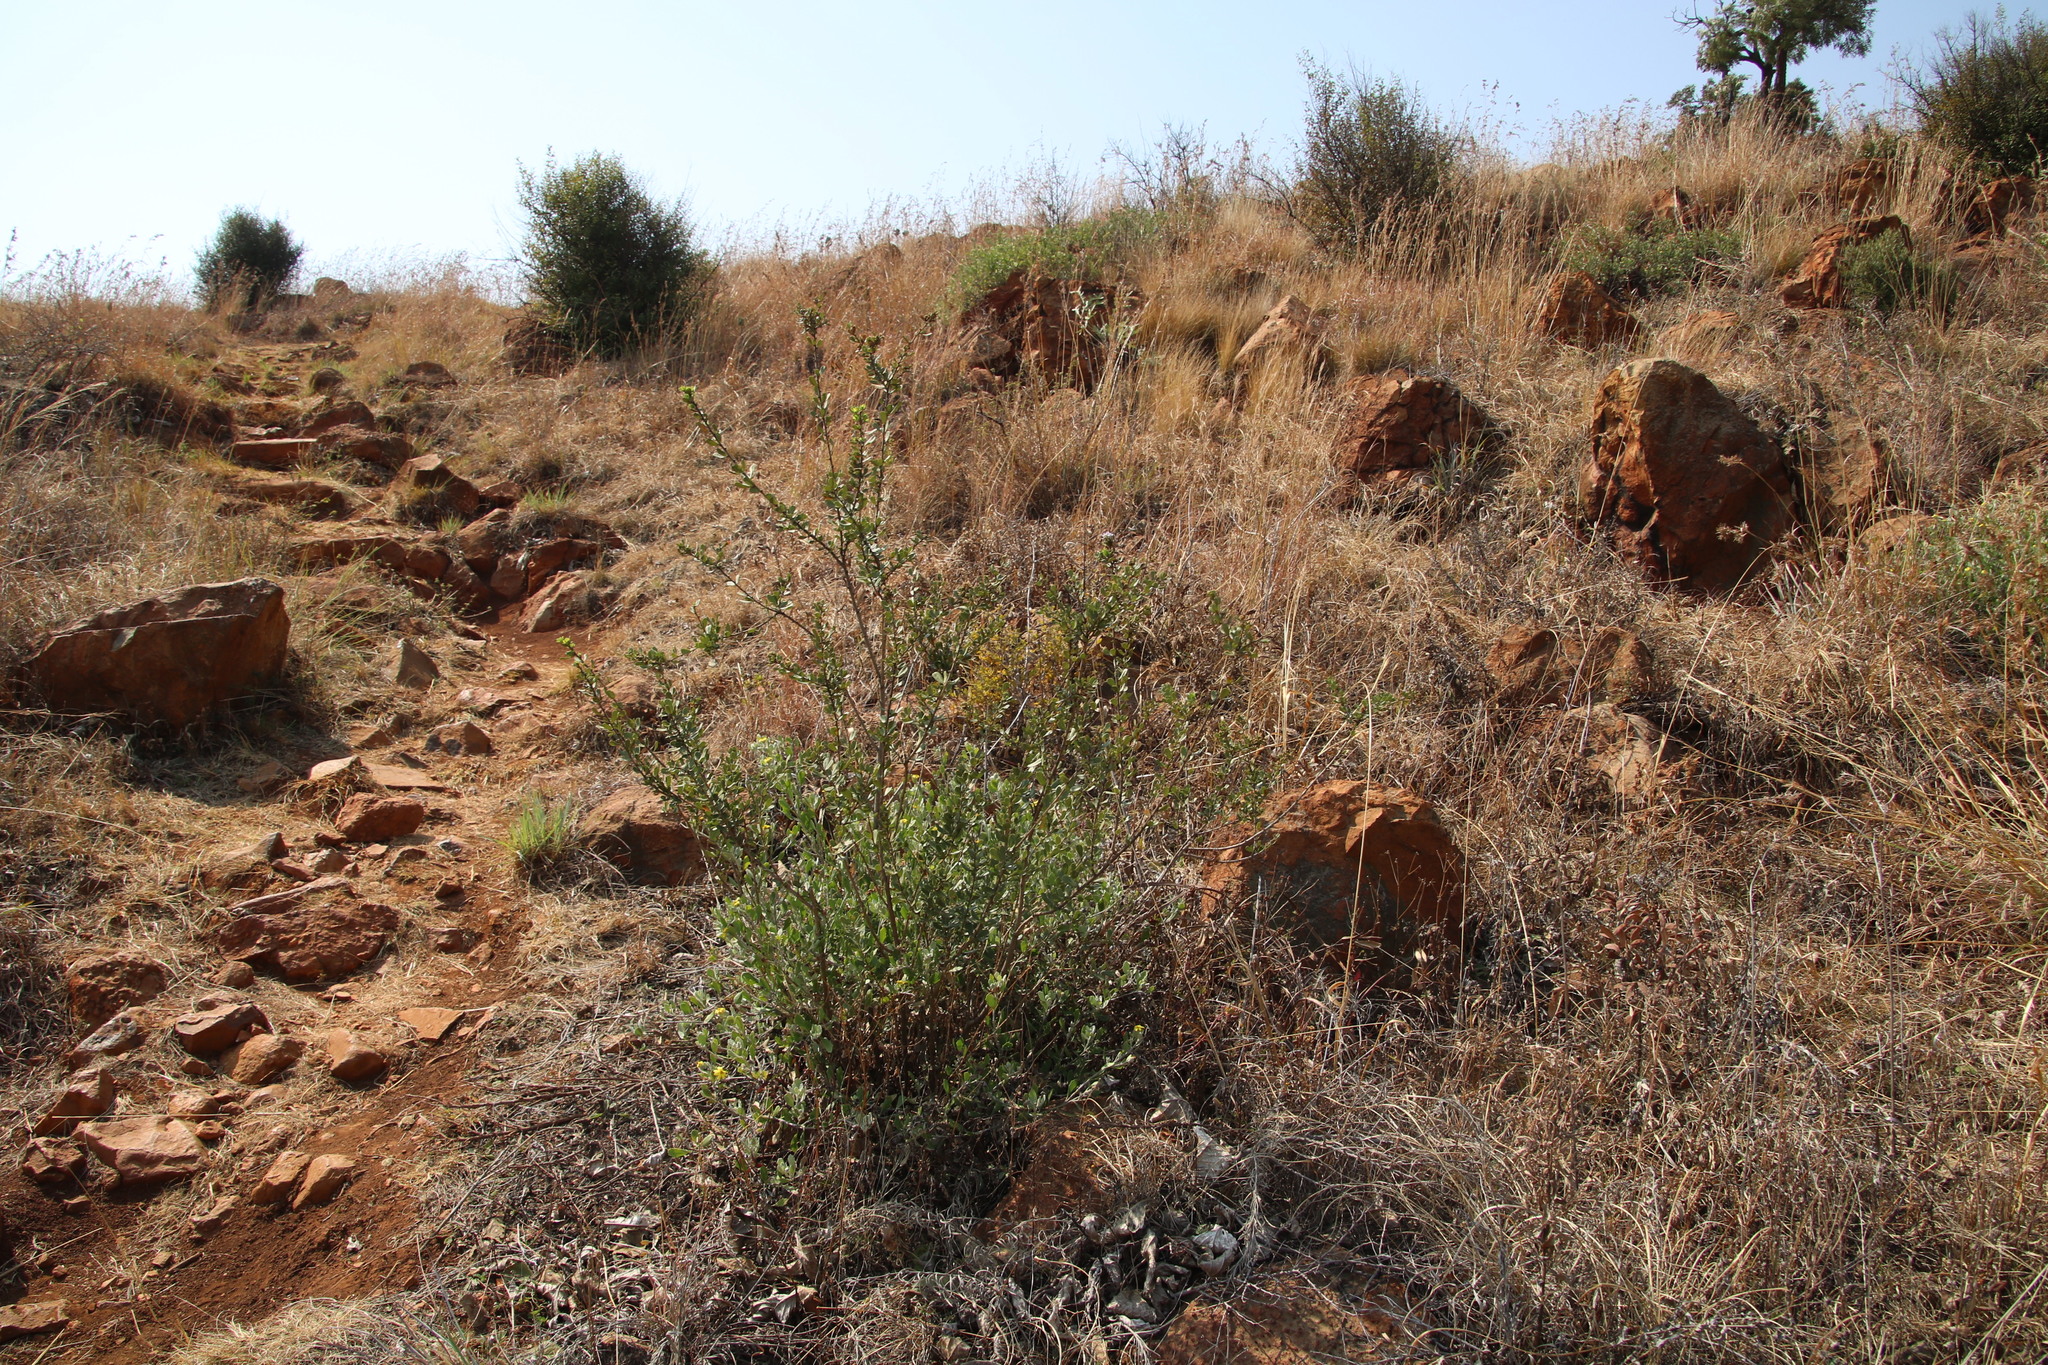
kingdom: Plantae
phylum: Tracheophyta
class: Magnoliopsida
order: Fabales
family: Fabaceae
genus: Psoralea
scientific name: Psoralea polysticta
